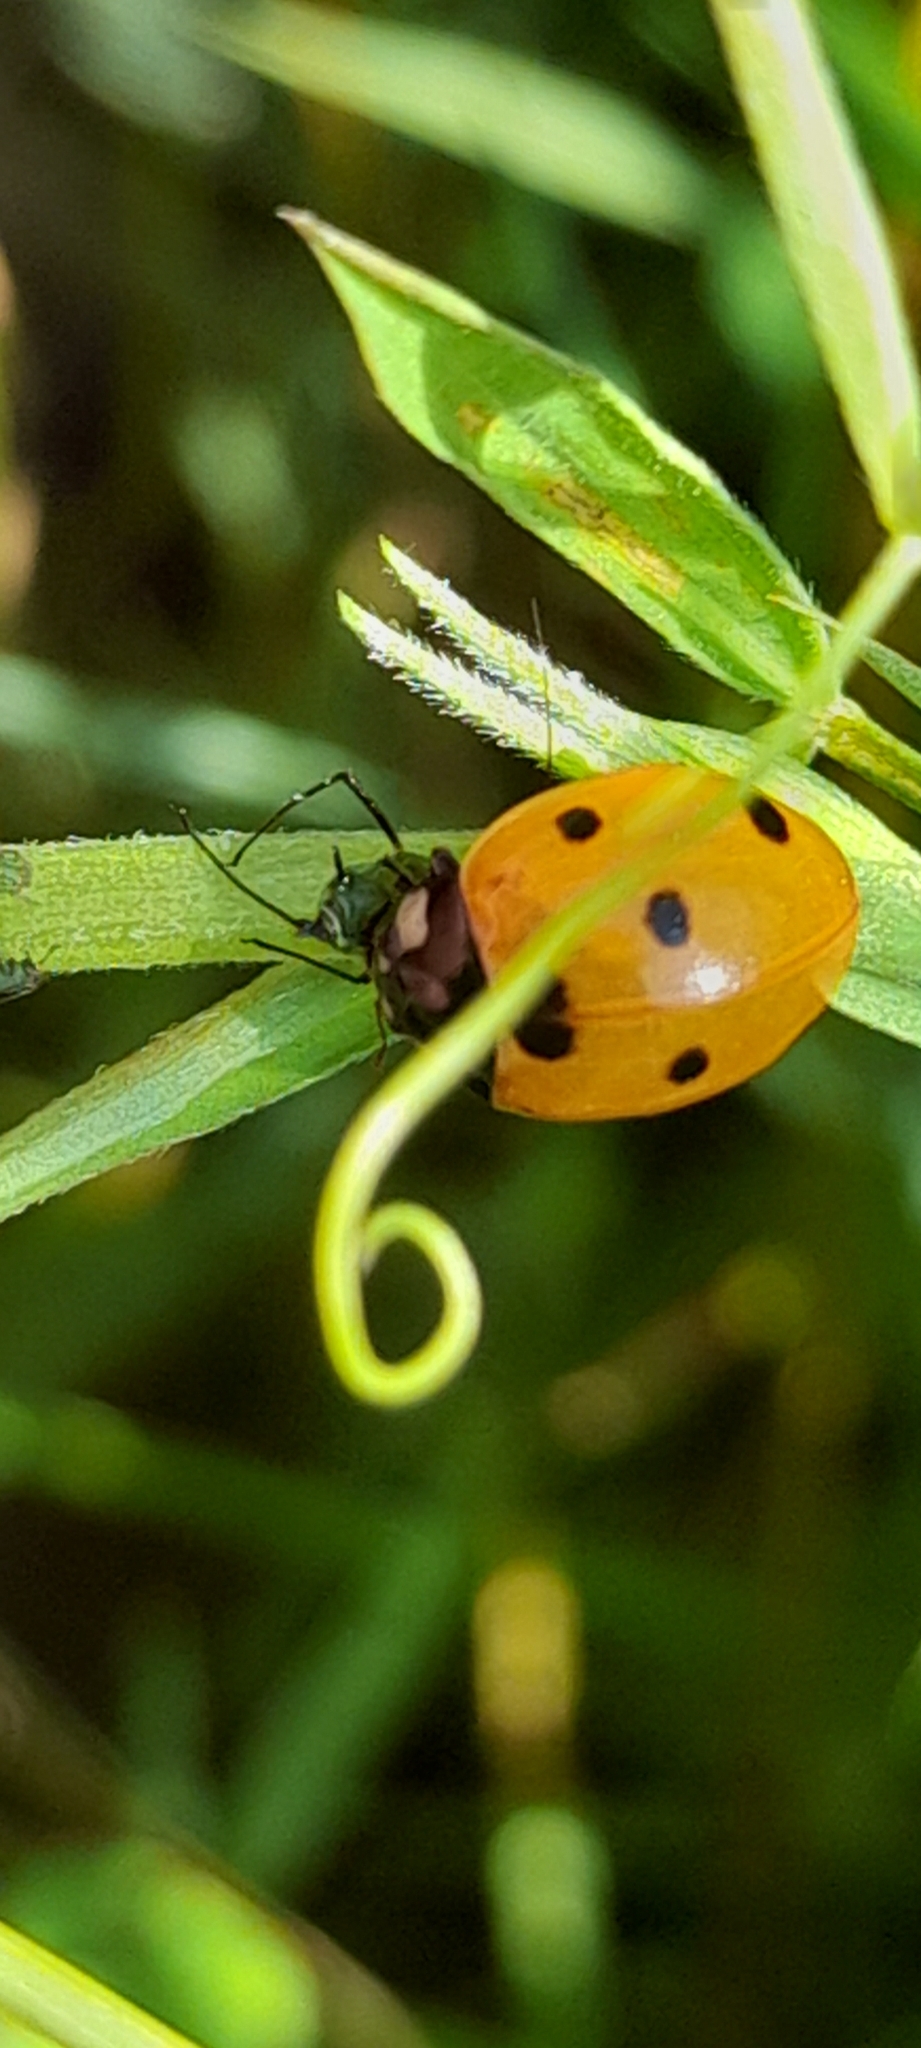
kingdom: Animalia
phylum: Arthropoda
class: Insecta
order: Coleoptera
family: Coccinellidae
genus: Coccinella
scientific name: Coccinella septempunctata
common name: Sevenspotted lady beetle
